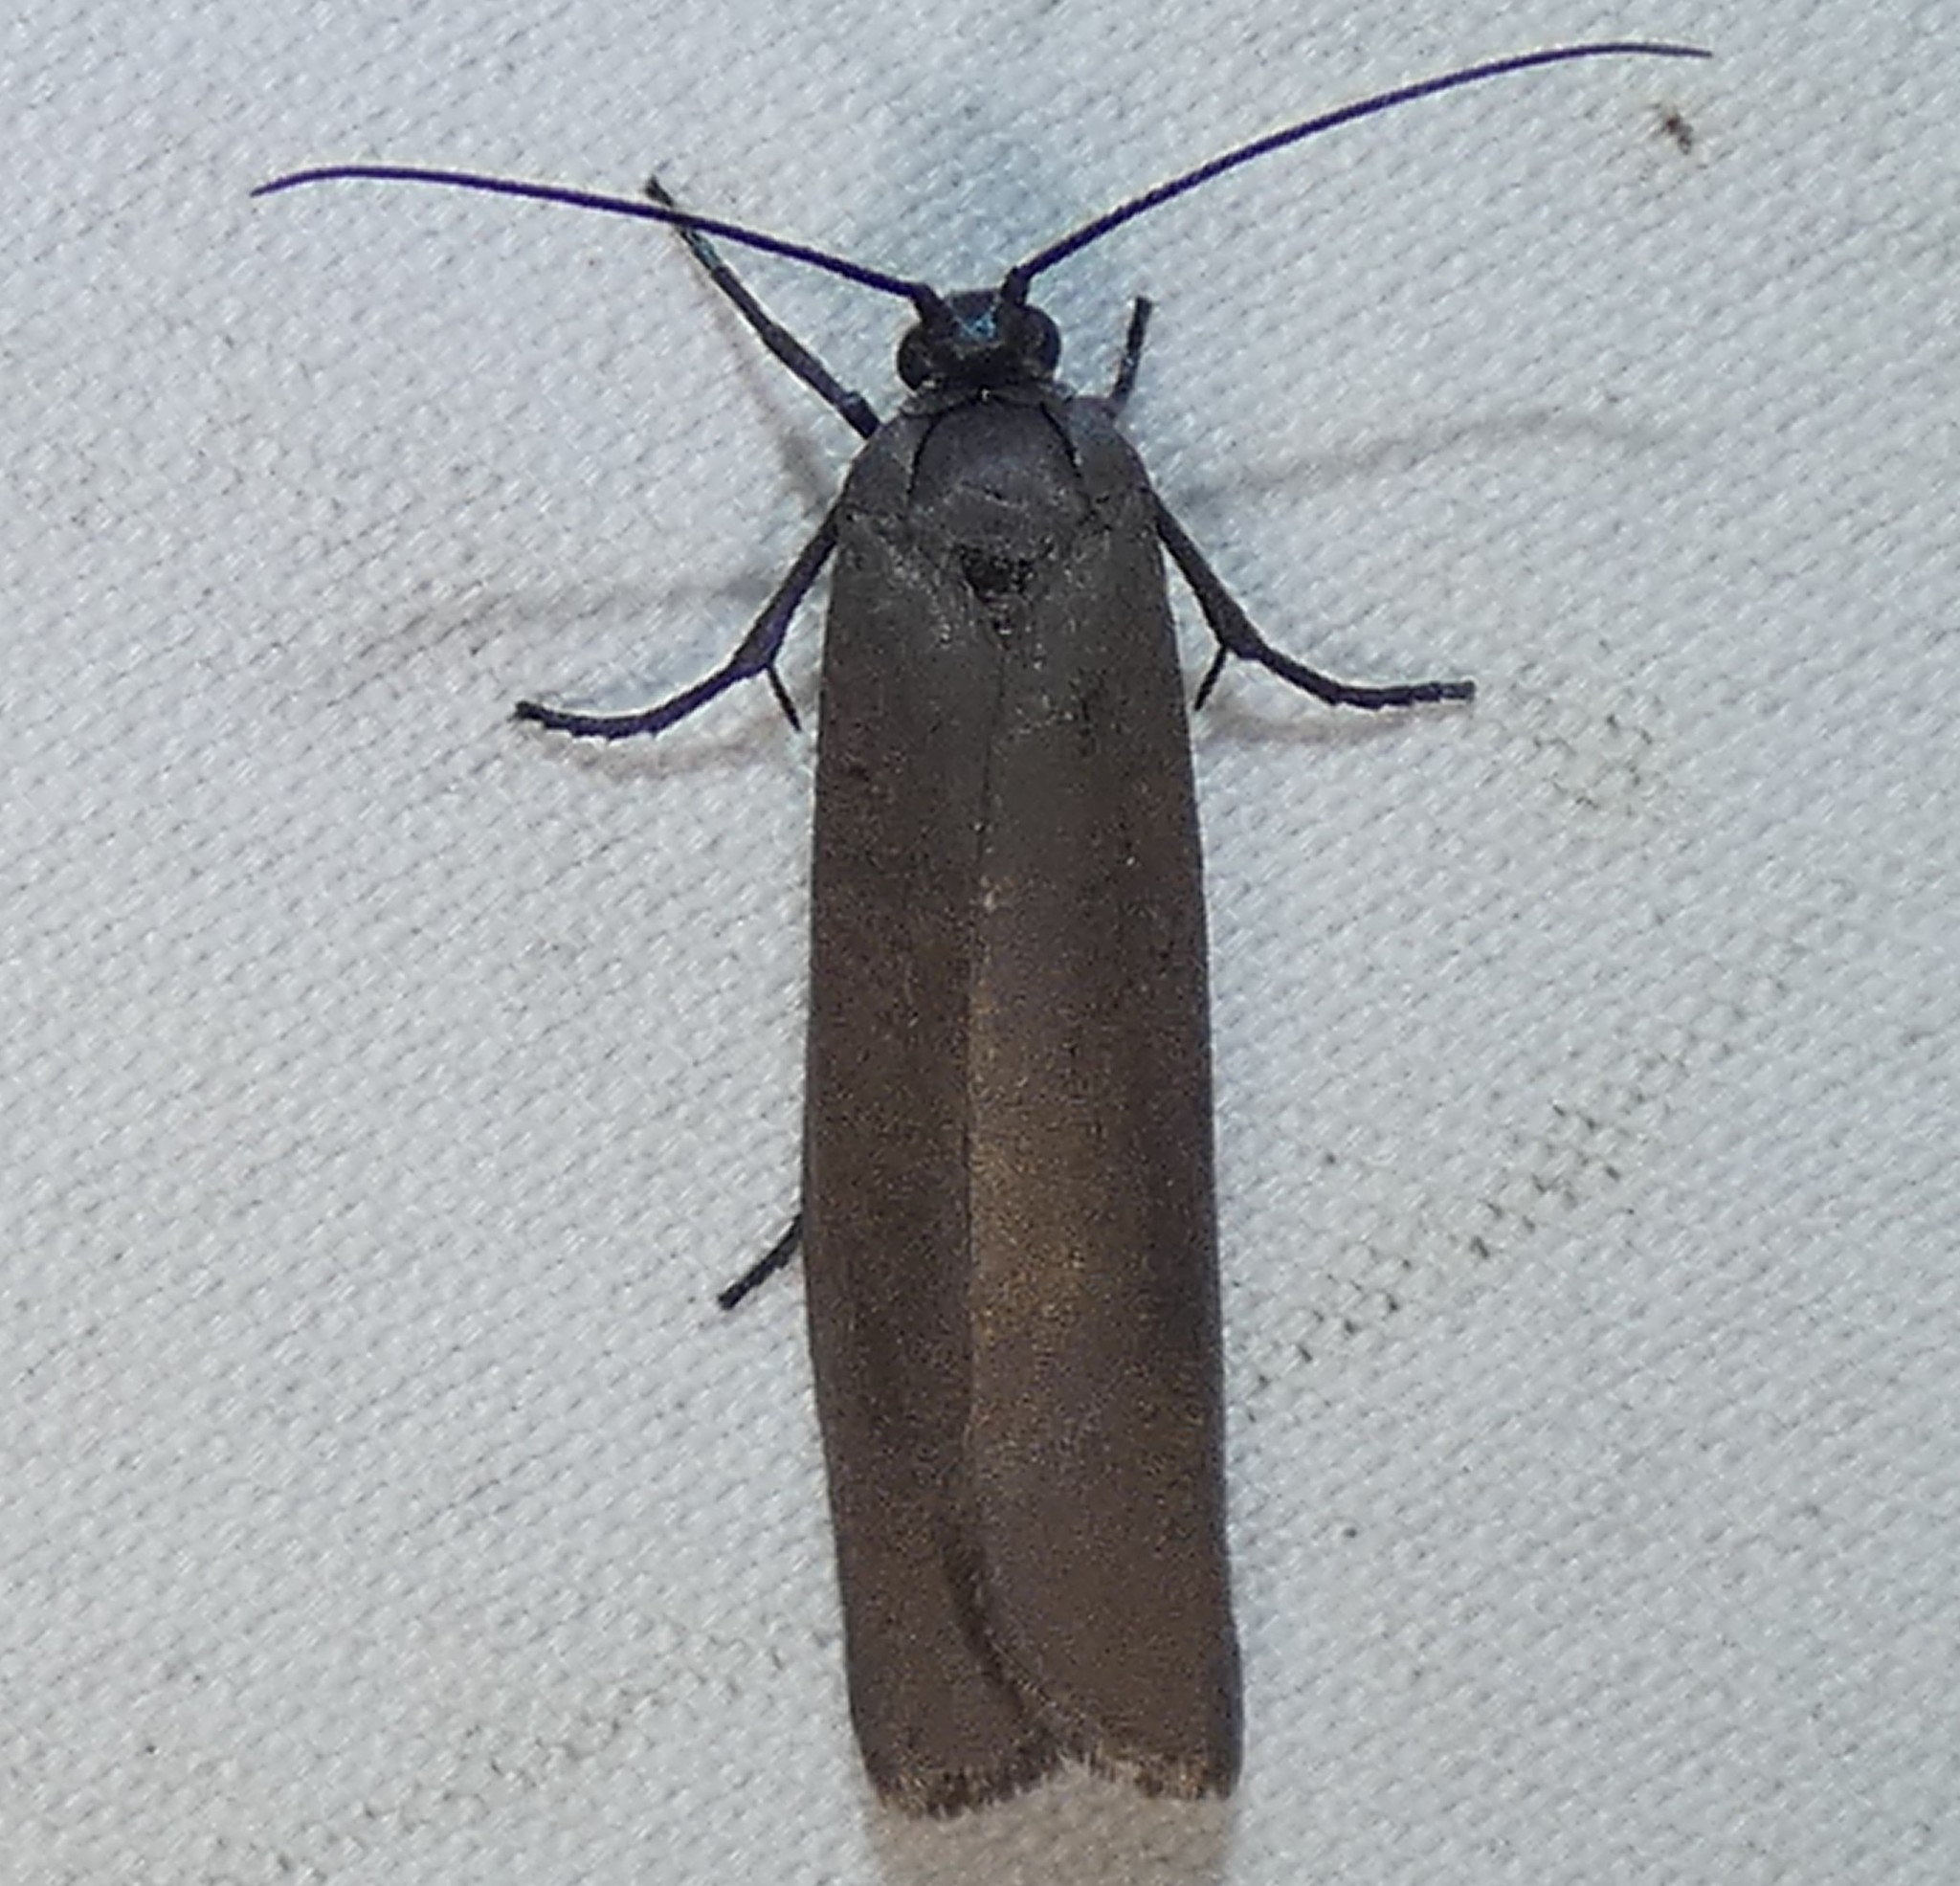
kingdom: Animalia
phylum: Arthropoda
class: Insecta
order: Lepidoptera
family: Urodidae
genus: Urodus
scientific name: Urodus parvula
